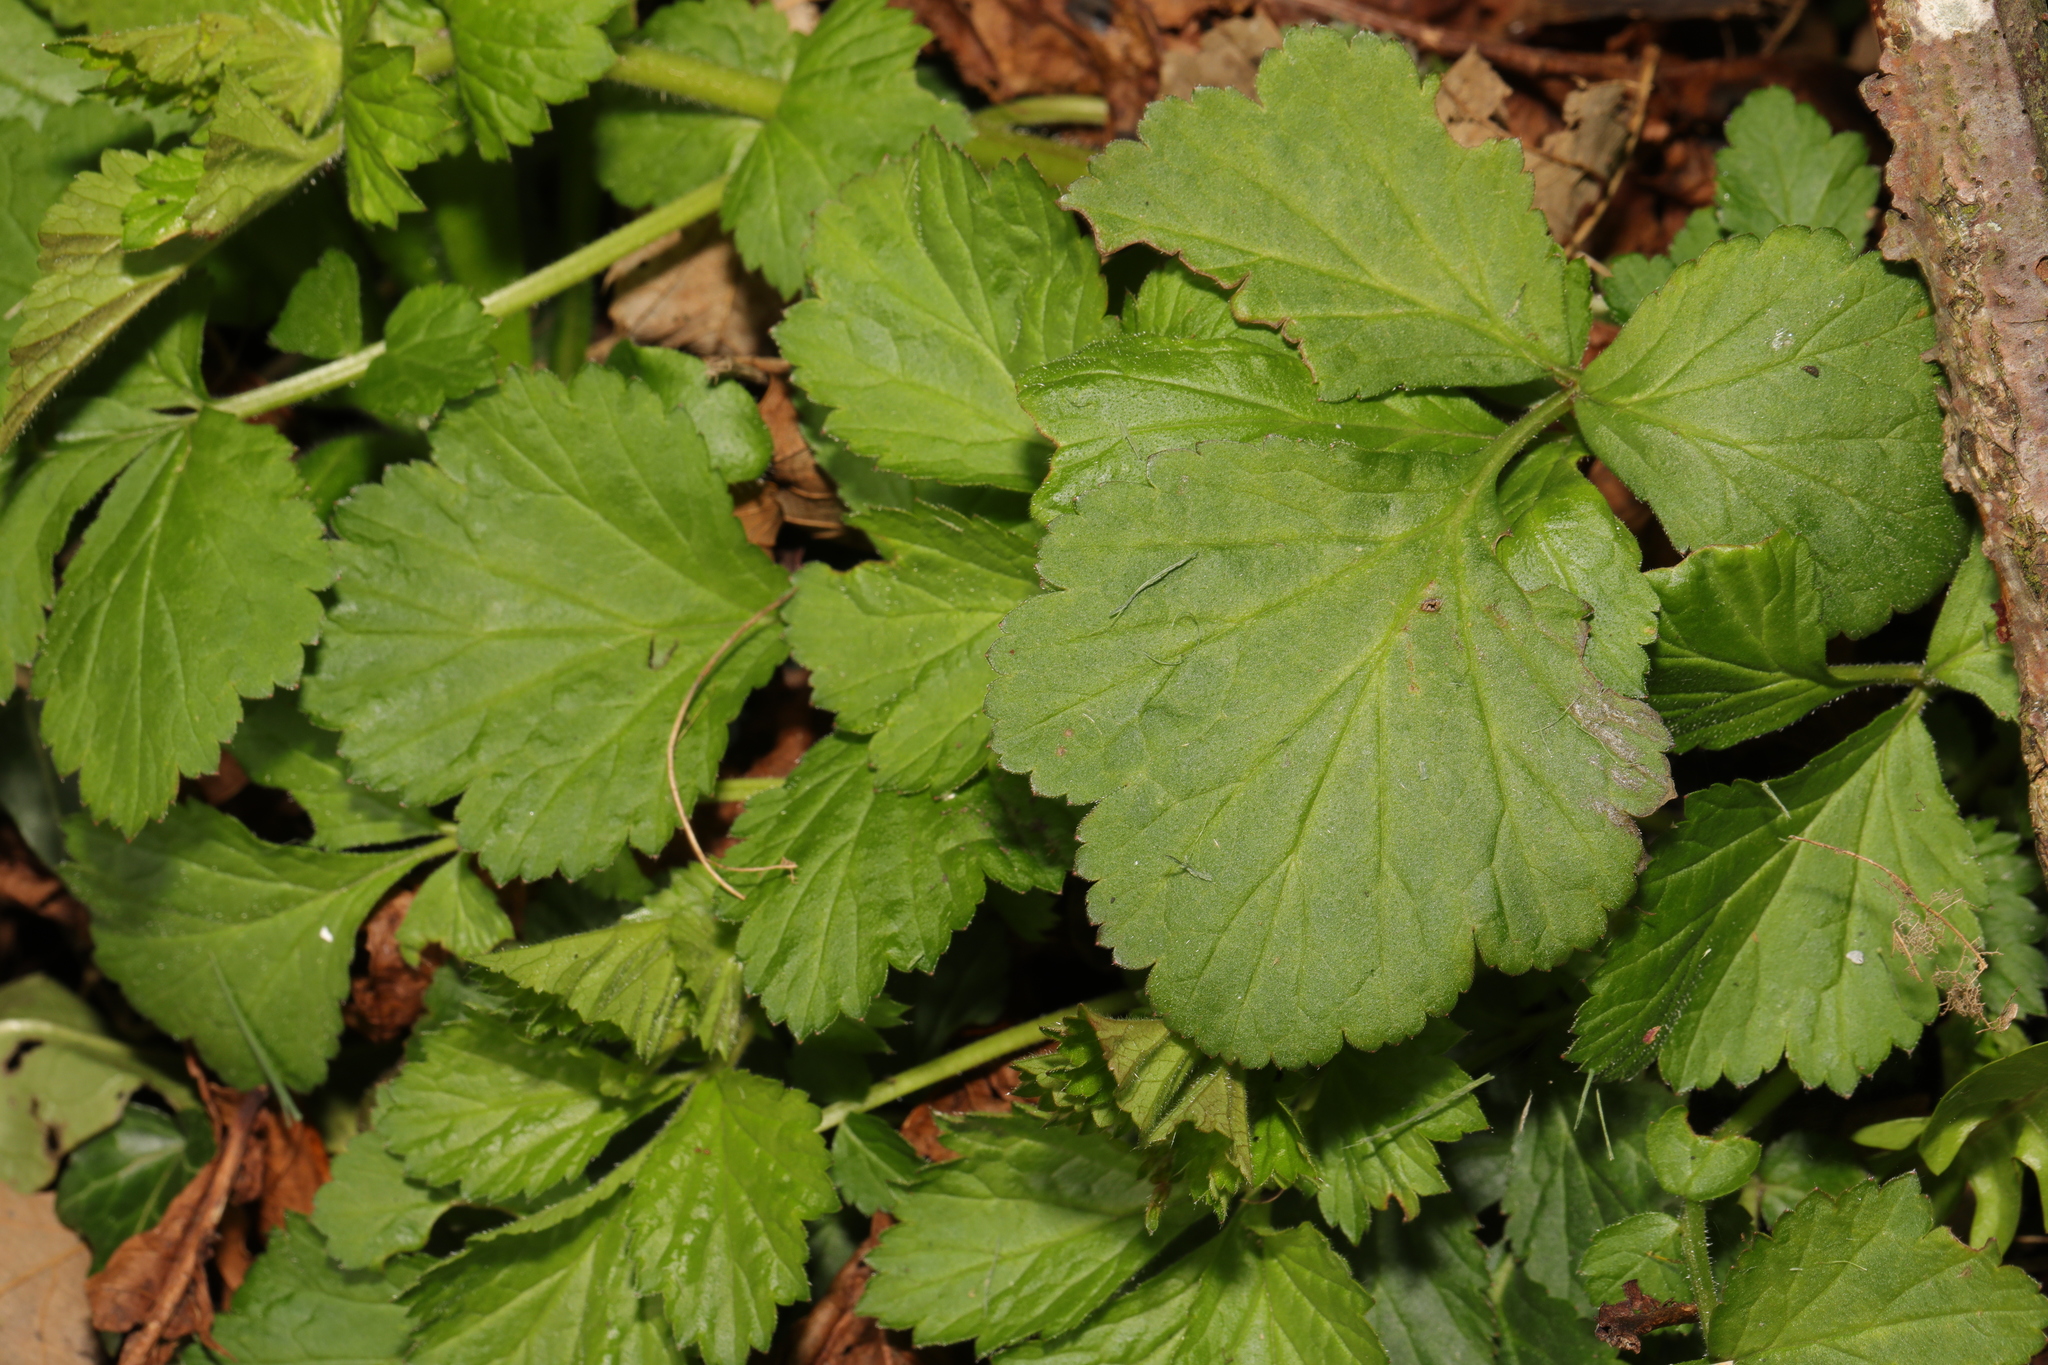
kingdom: Plantae
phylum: Tracheophyta
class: Magnoliopsida
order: Rosales
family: Rosaceae
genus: Geum
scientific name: Geum urbanum
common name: Wood avens
